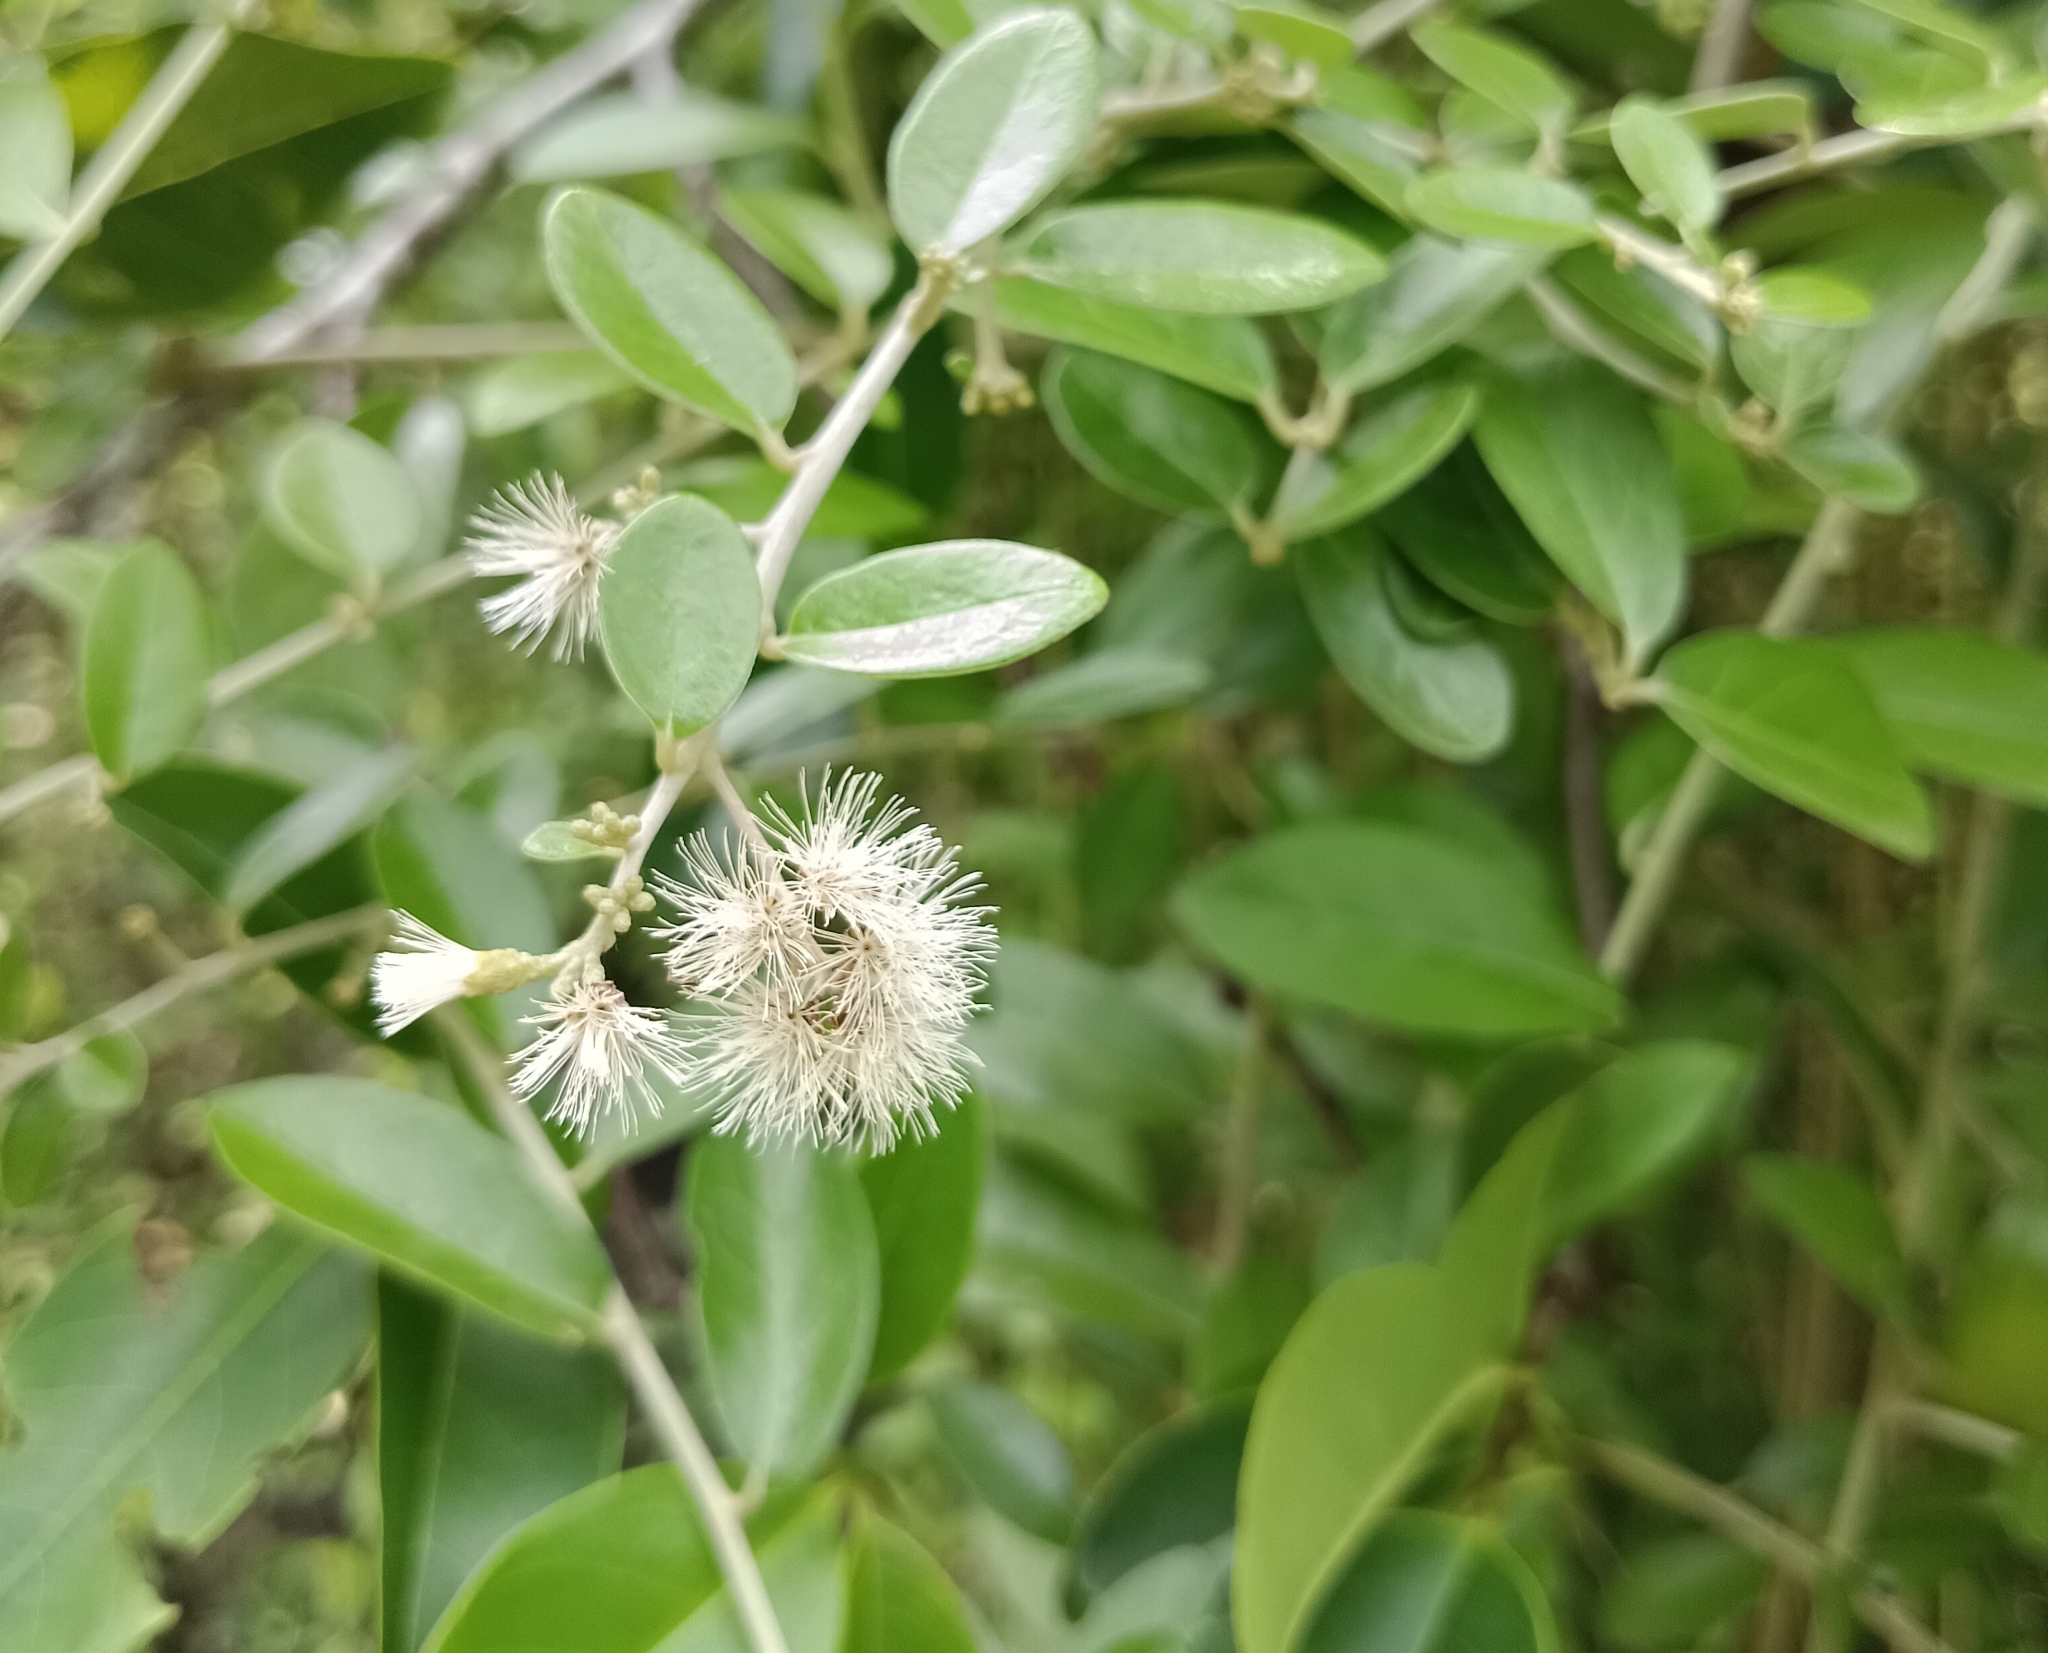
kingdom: Plantae
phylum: Tracheophyta
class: Magnoliopsida
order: Asterales
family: Asteraceae
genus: Tarlmounia
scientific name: Tarlmounia elliptica
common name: Kheua sa lot
